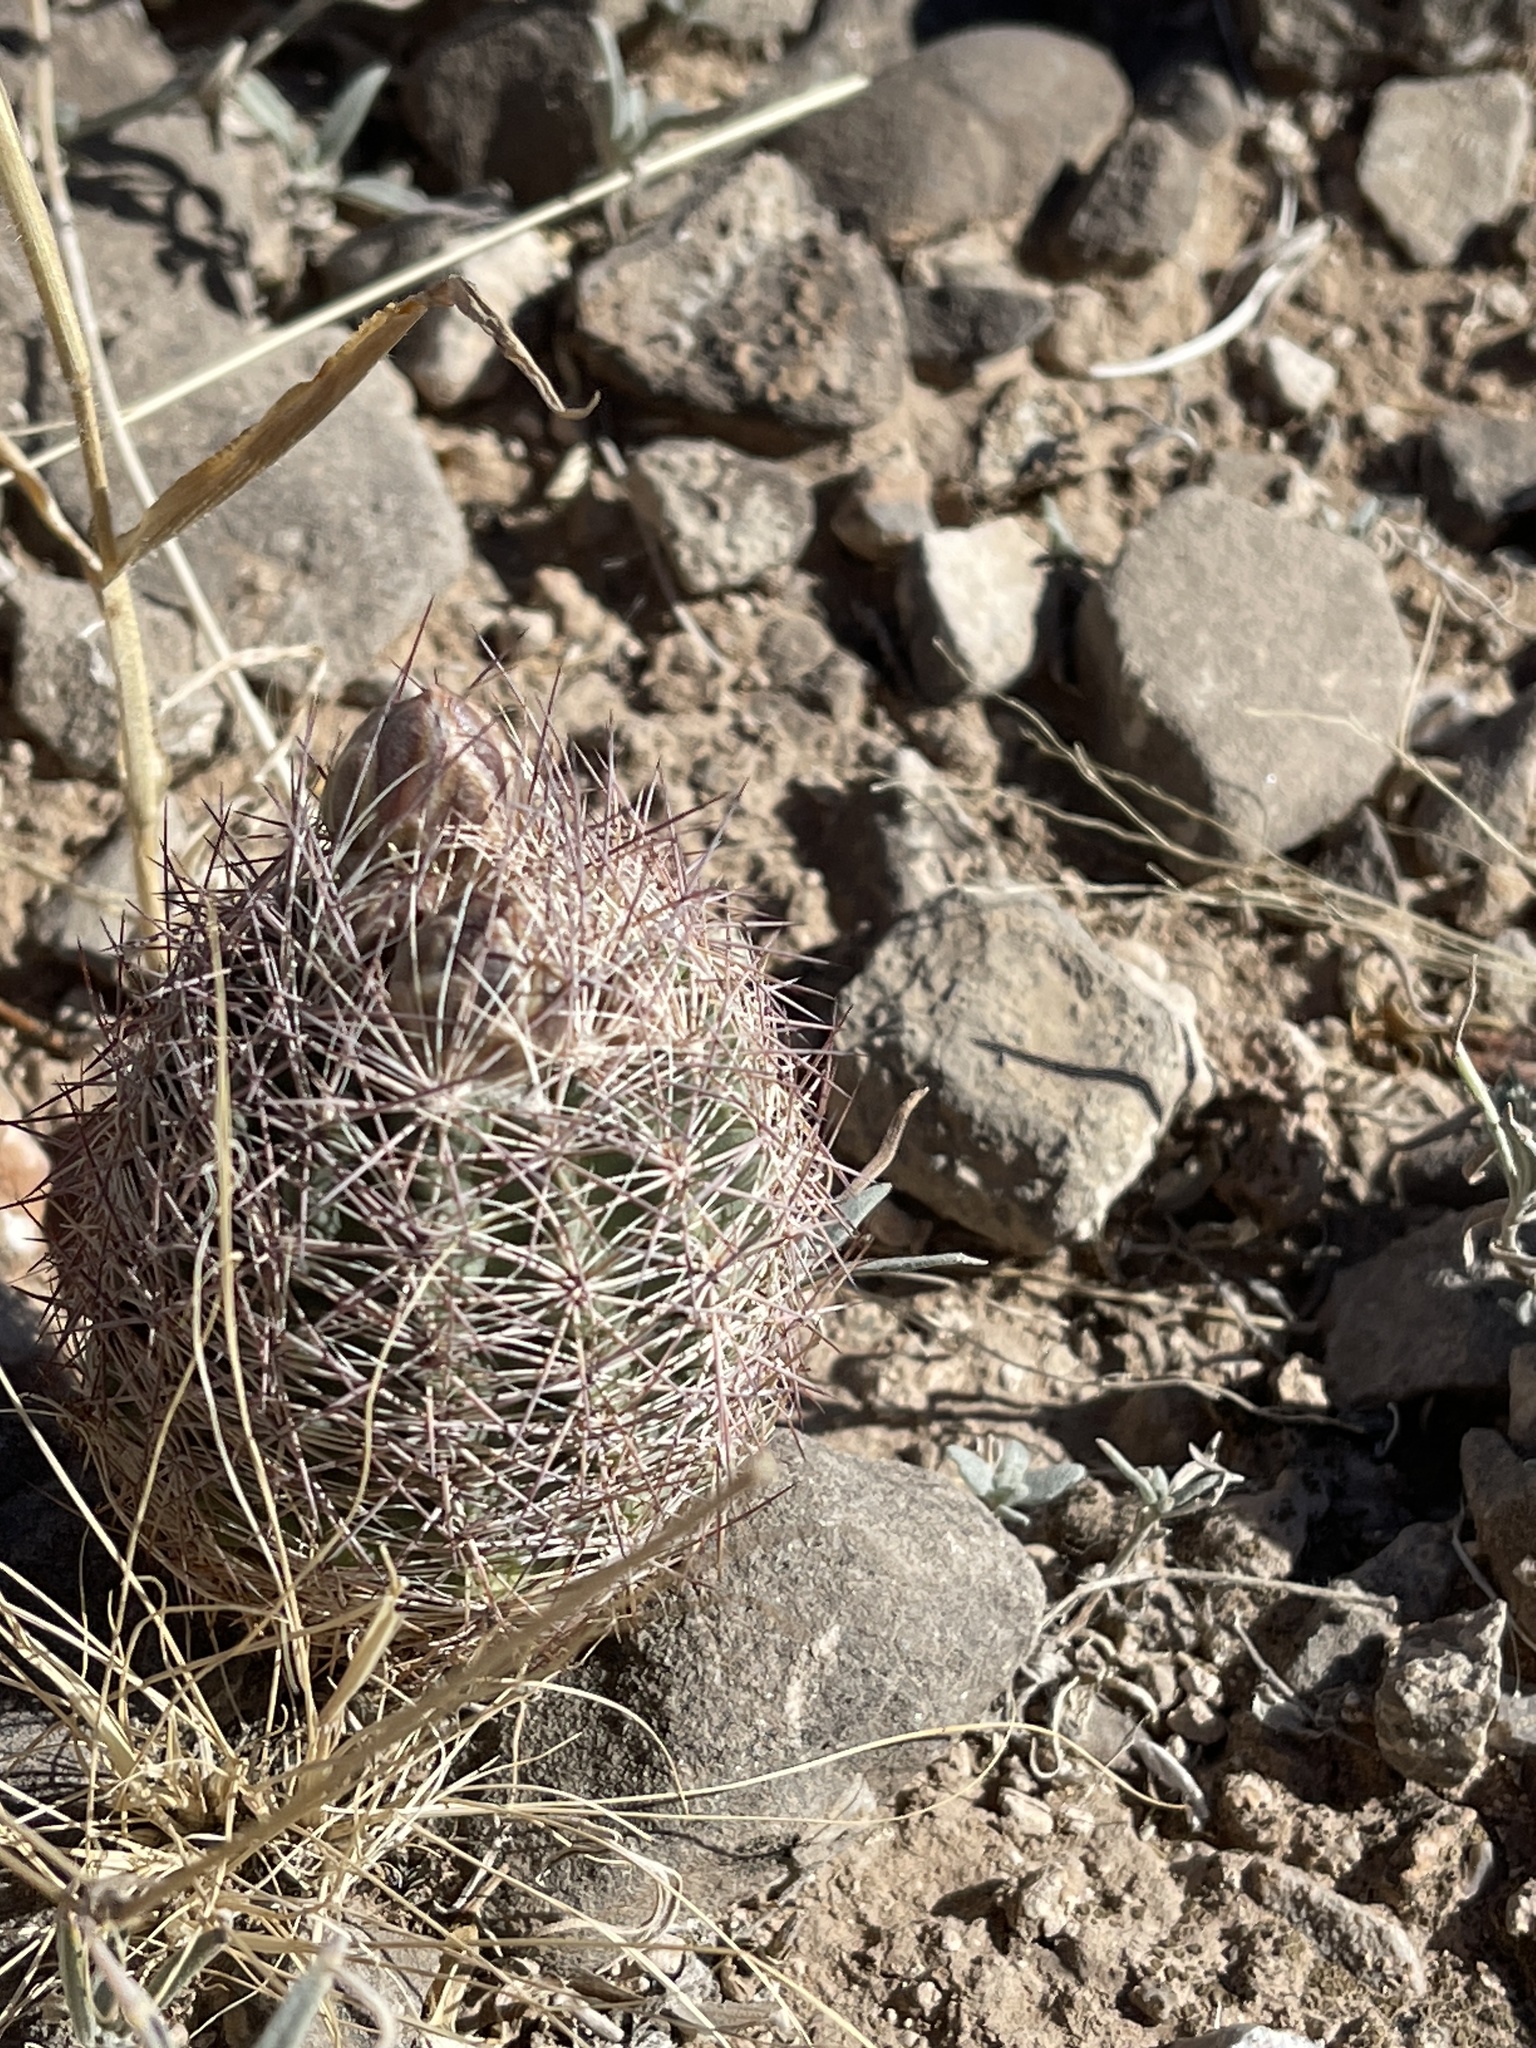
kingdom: Plantae
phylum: Tracheophyta
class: Magnoliopsida
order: Caryophyllales
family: Cactaceae
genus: Sclerocactus
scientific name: Sclerocactus intertextus
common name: White fish-hook cactus
